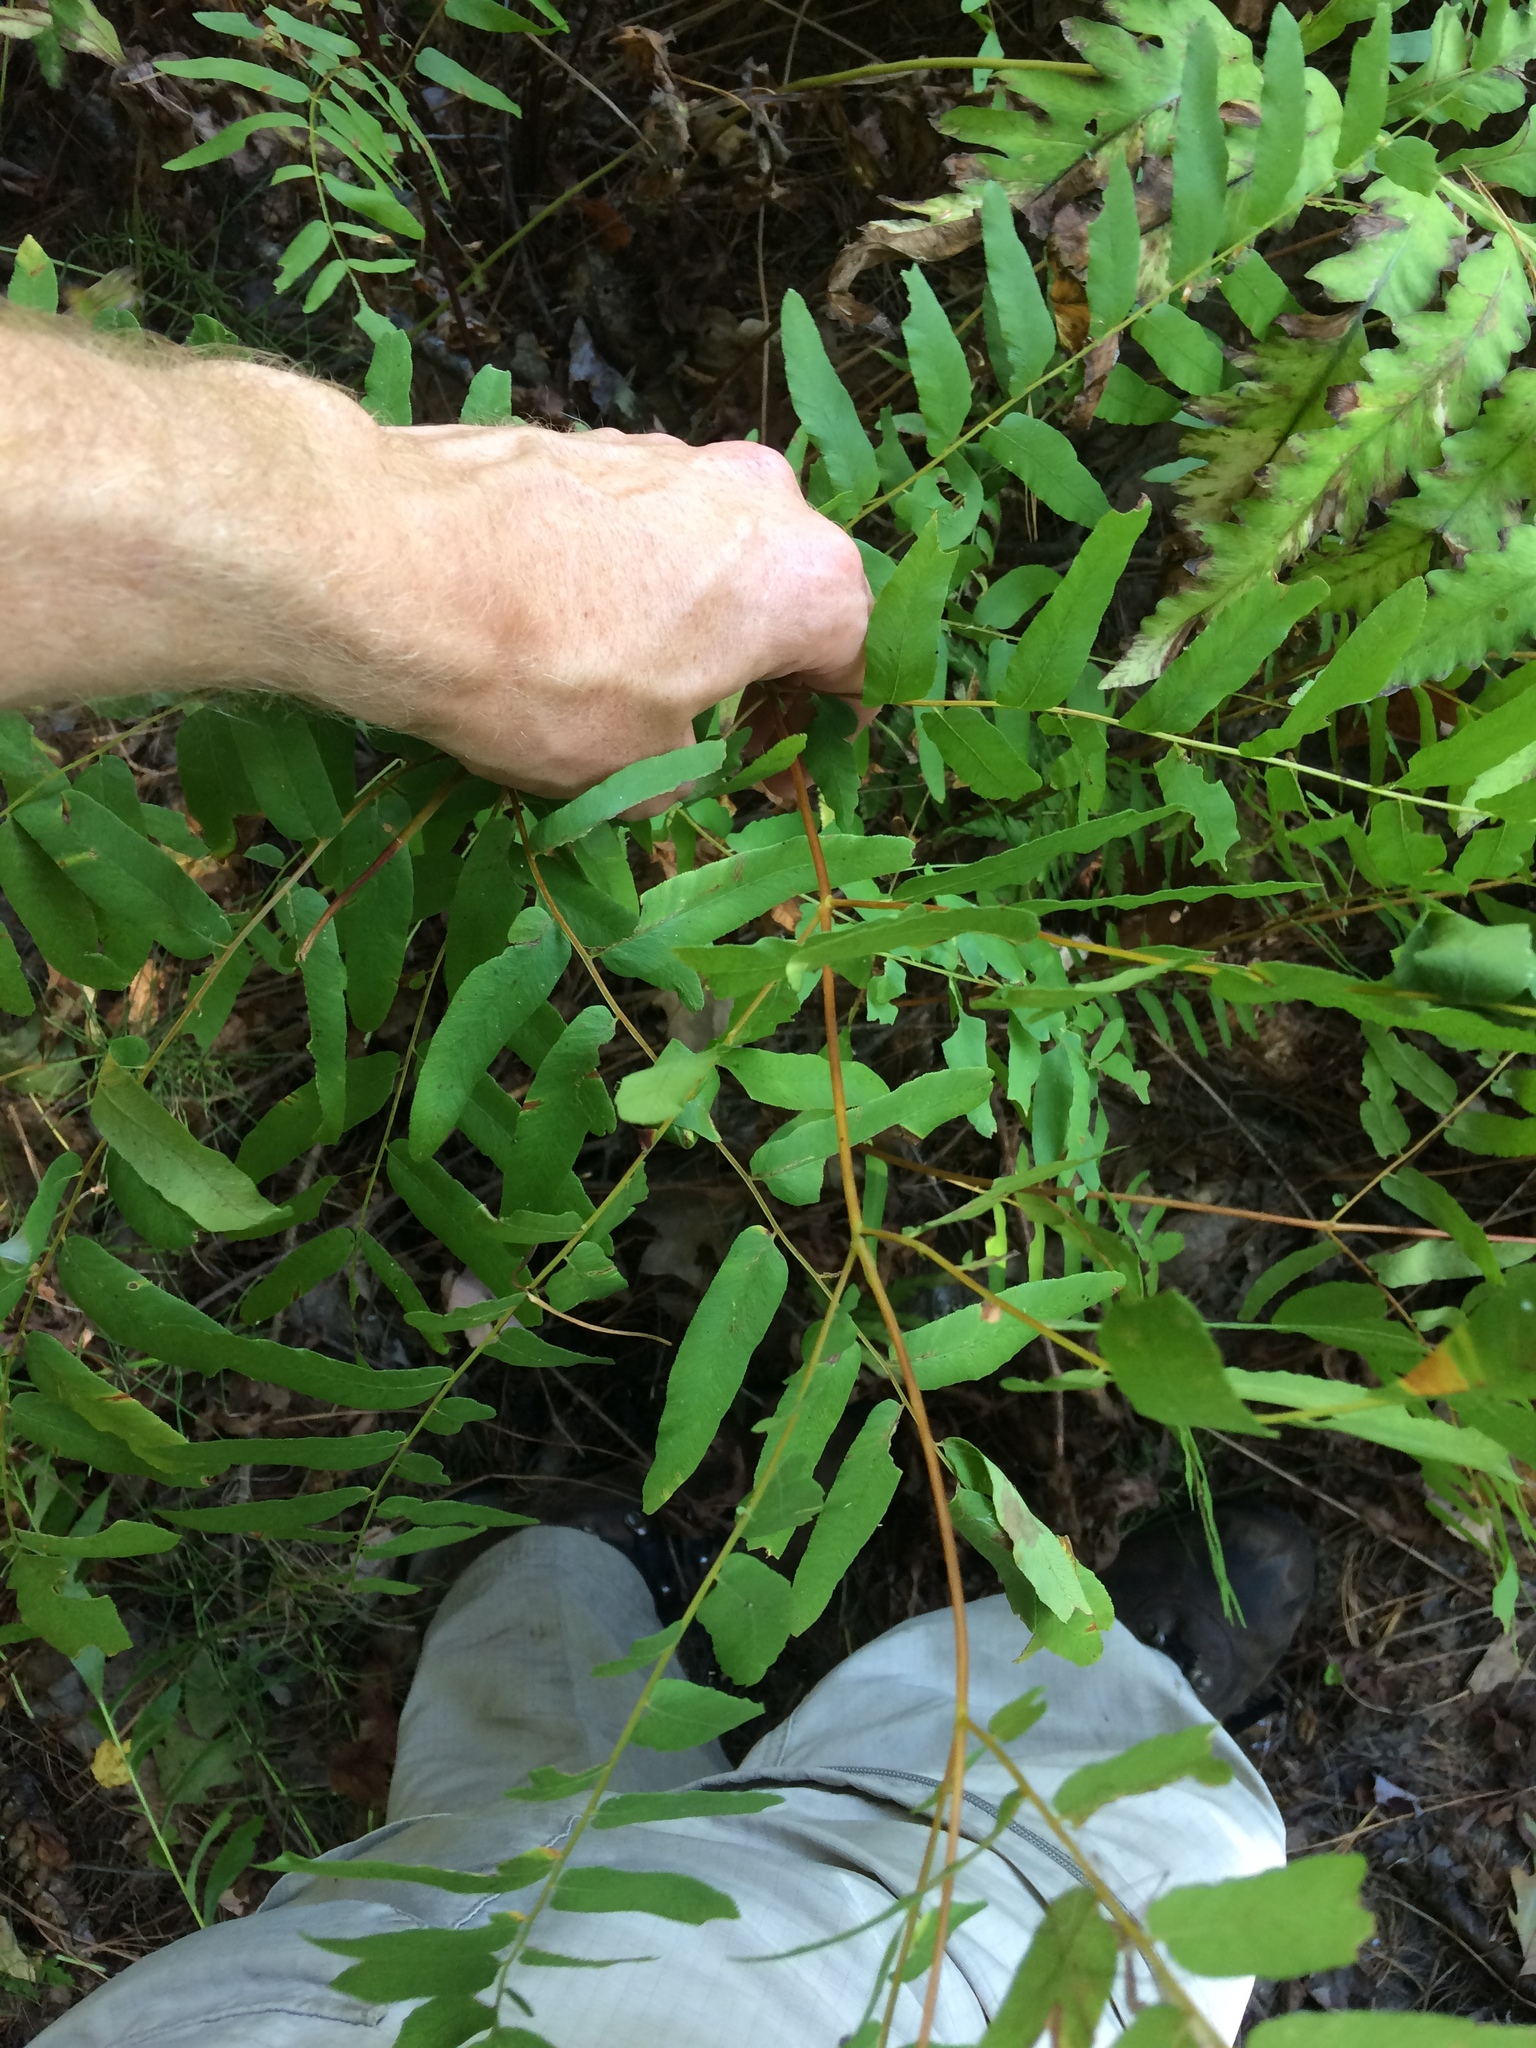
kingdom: Plantae
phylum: Tracheophyta
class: Polypodiopsida
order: Osmundales
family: Osmundaceae
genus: Osmunda
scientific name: Osmunda spectabilis
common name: American royal fern
